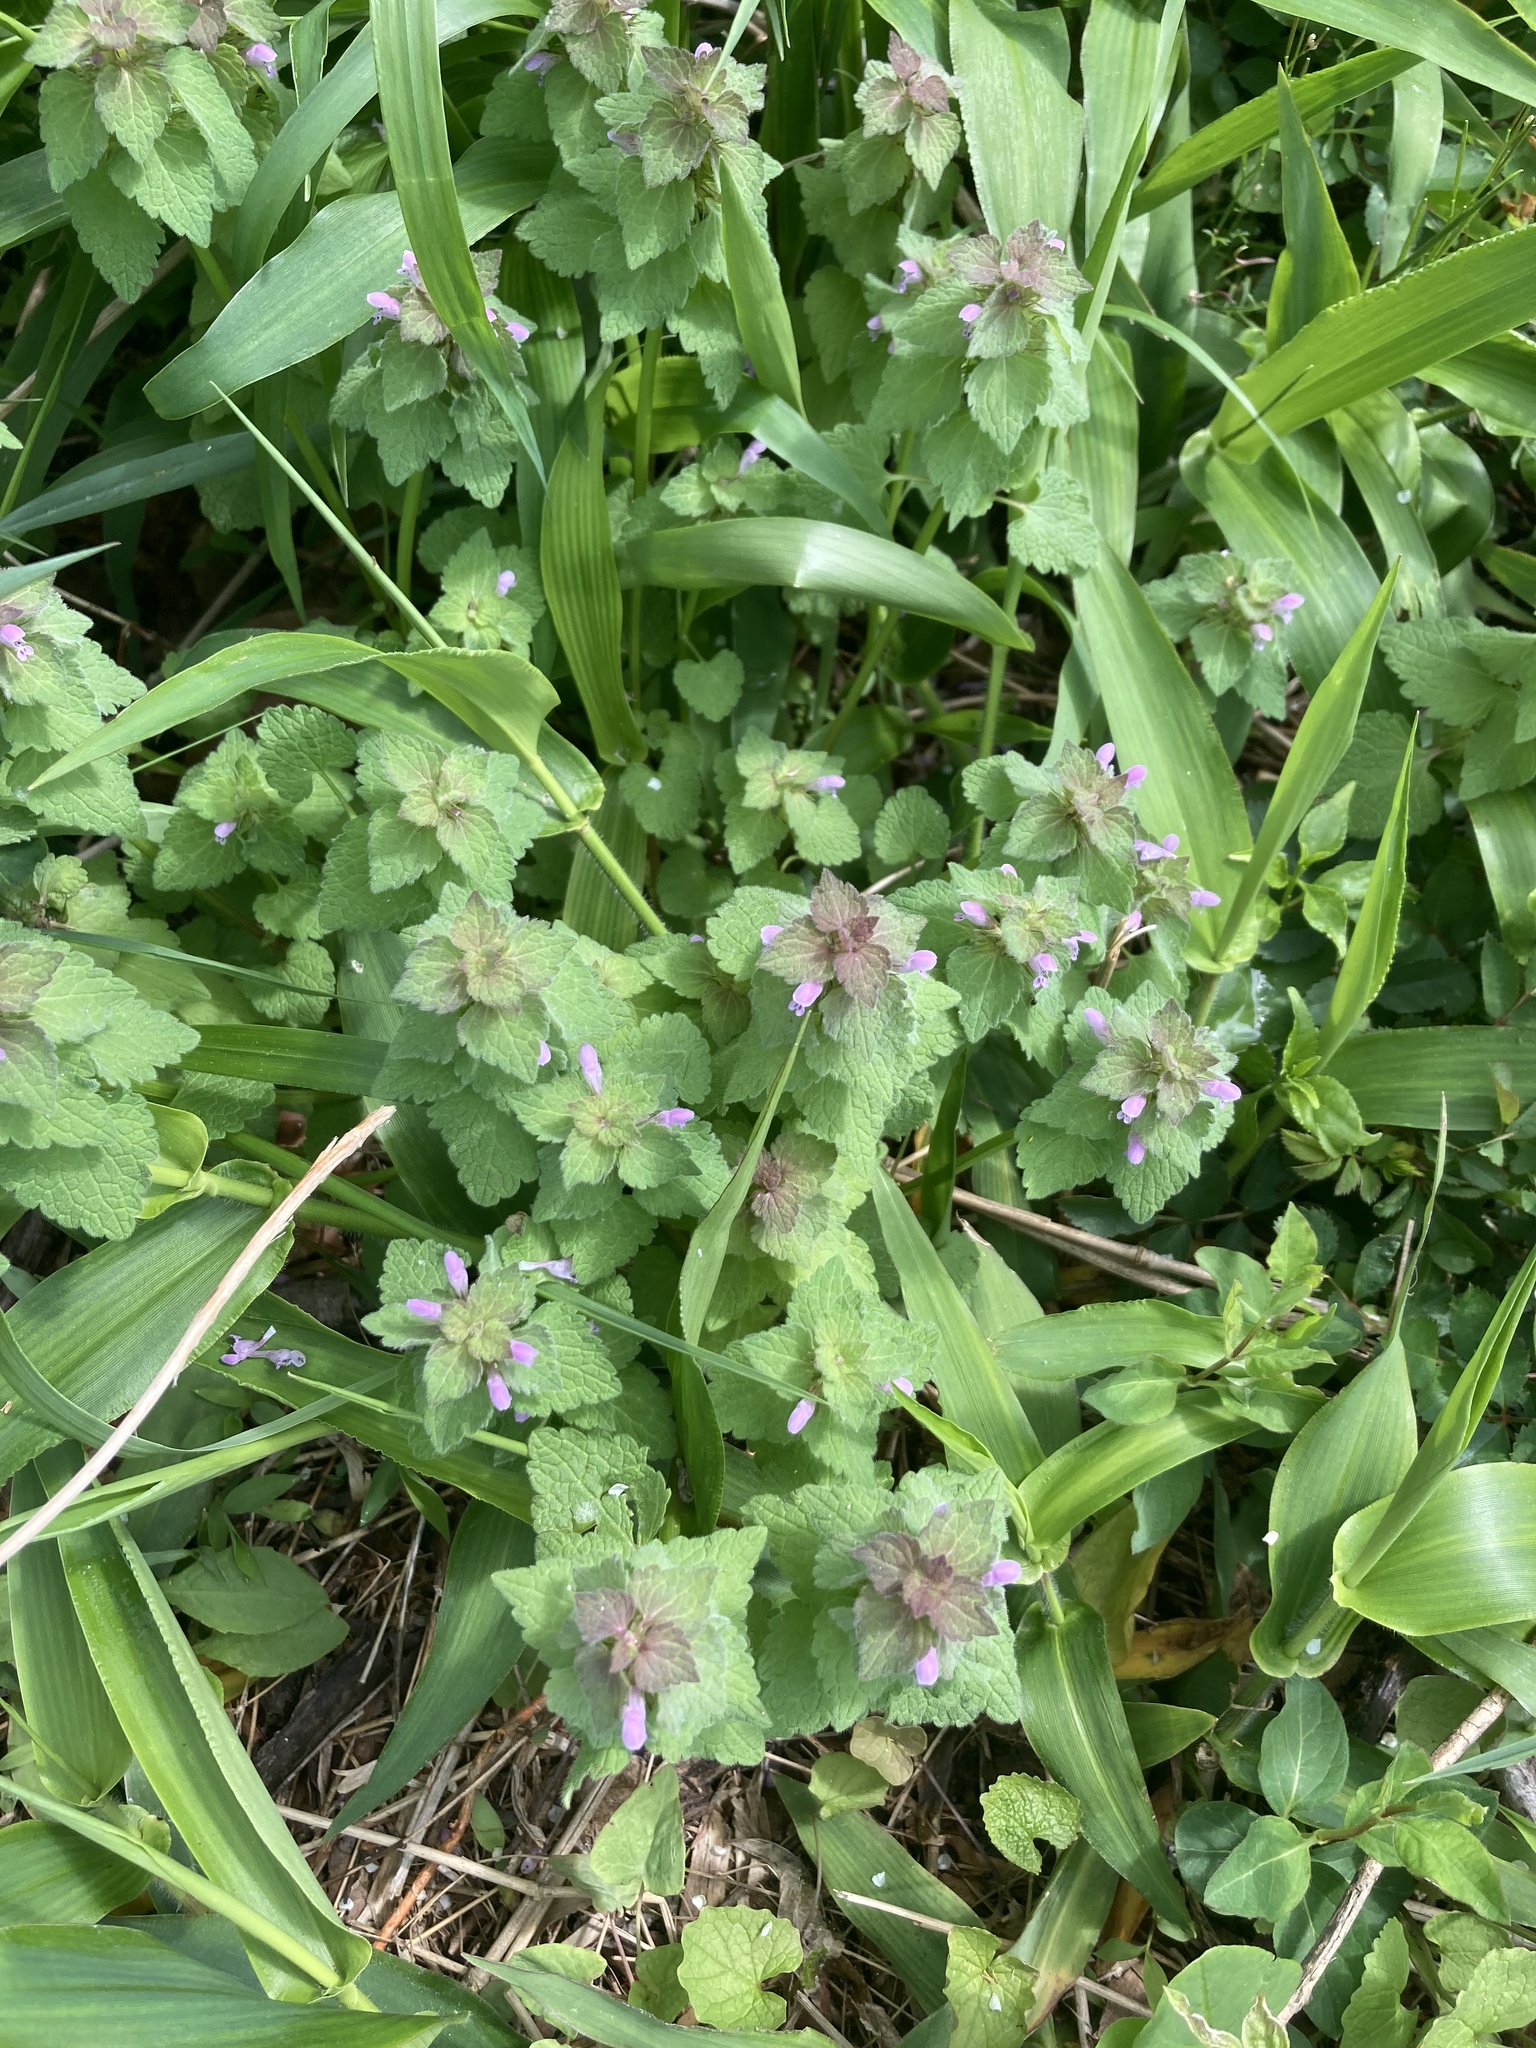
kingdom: Plantae
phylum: Tracheophyta
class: Magnoliopsida
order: Lamiales
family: Lamiaceae
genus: Lamium
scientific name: Lamium purpureum
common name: Red dead-nettle
